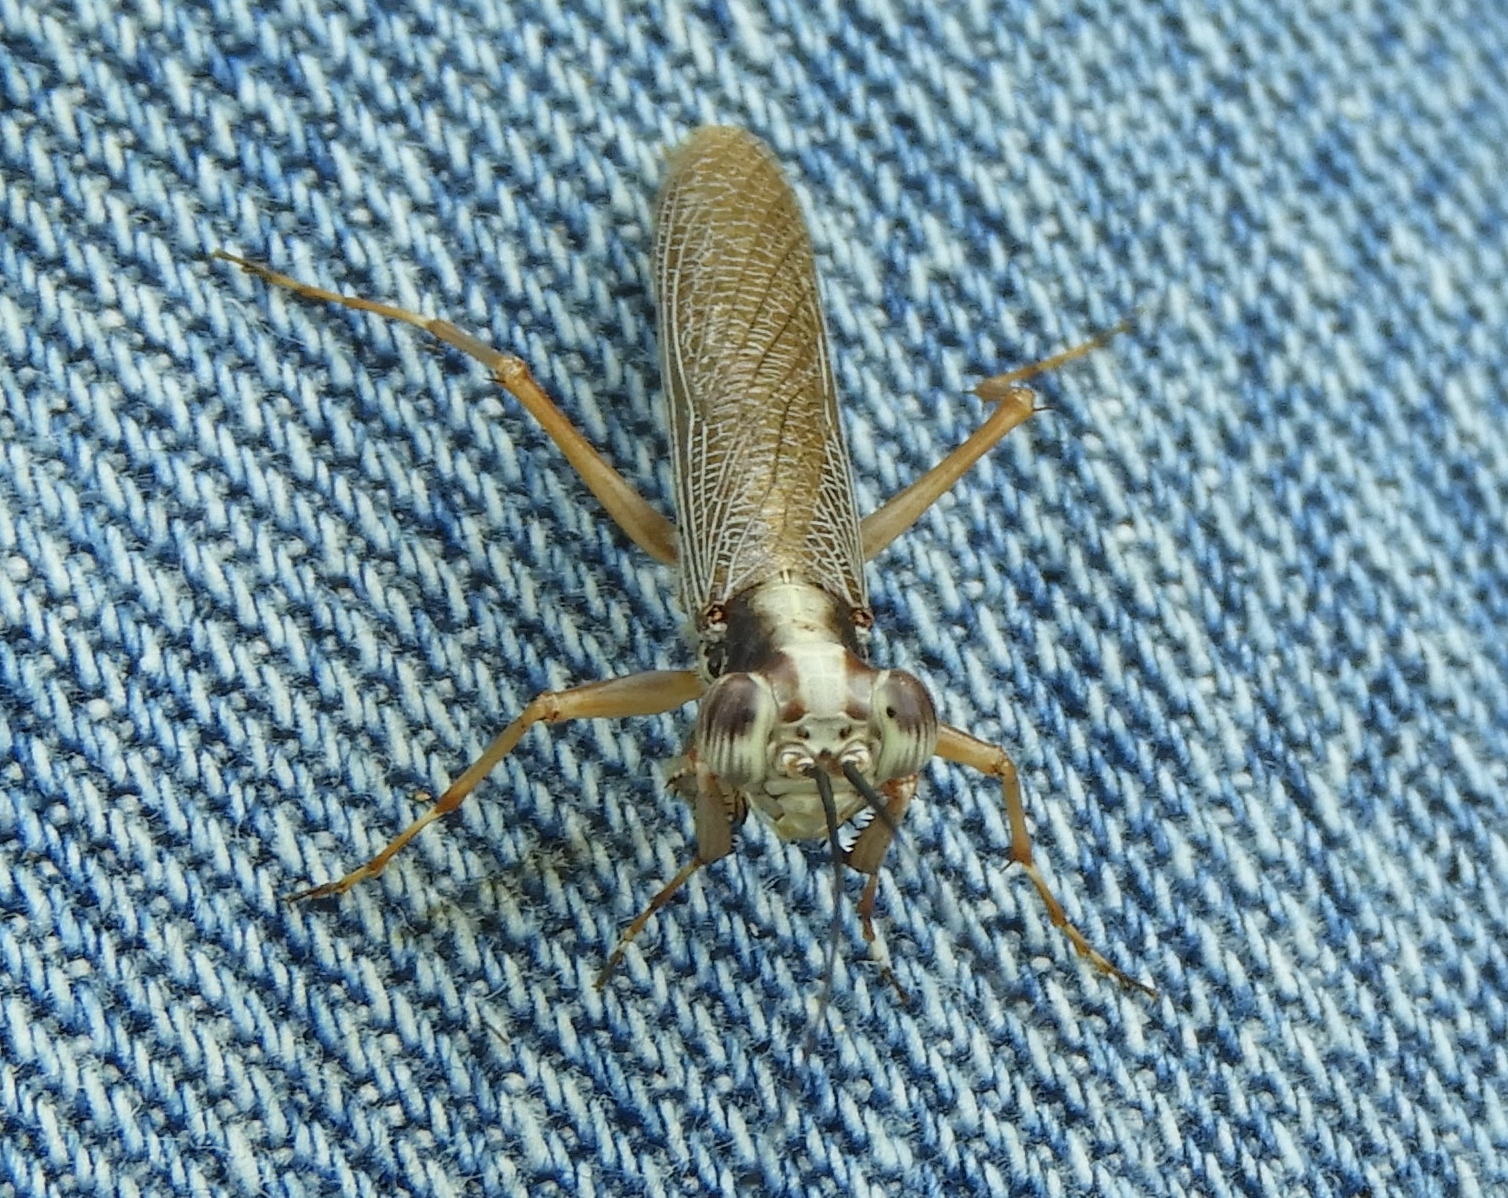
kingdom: Animalia
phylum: Arthropoda
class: Insecta
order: Mantodea
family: Mantoididae
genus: Mantoida
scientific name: Mantoida maya
